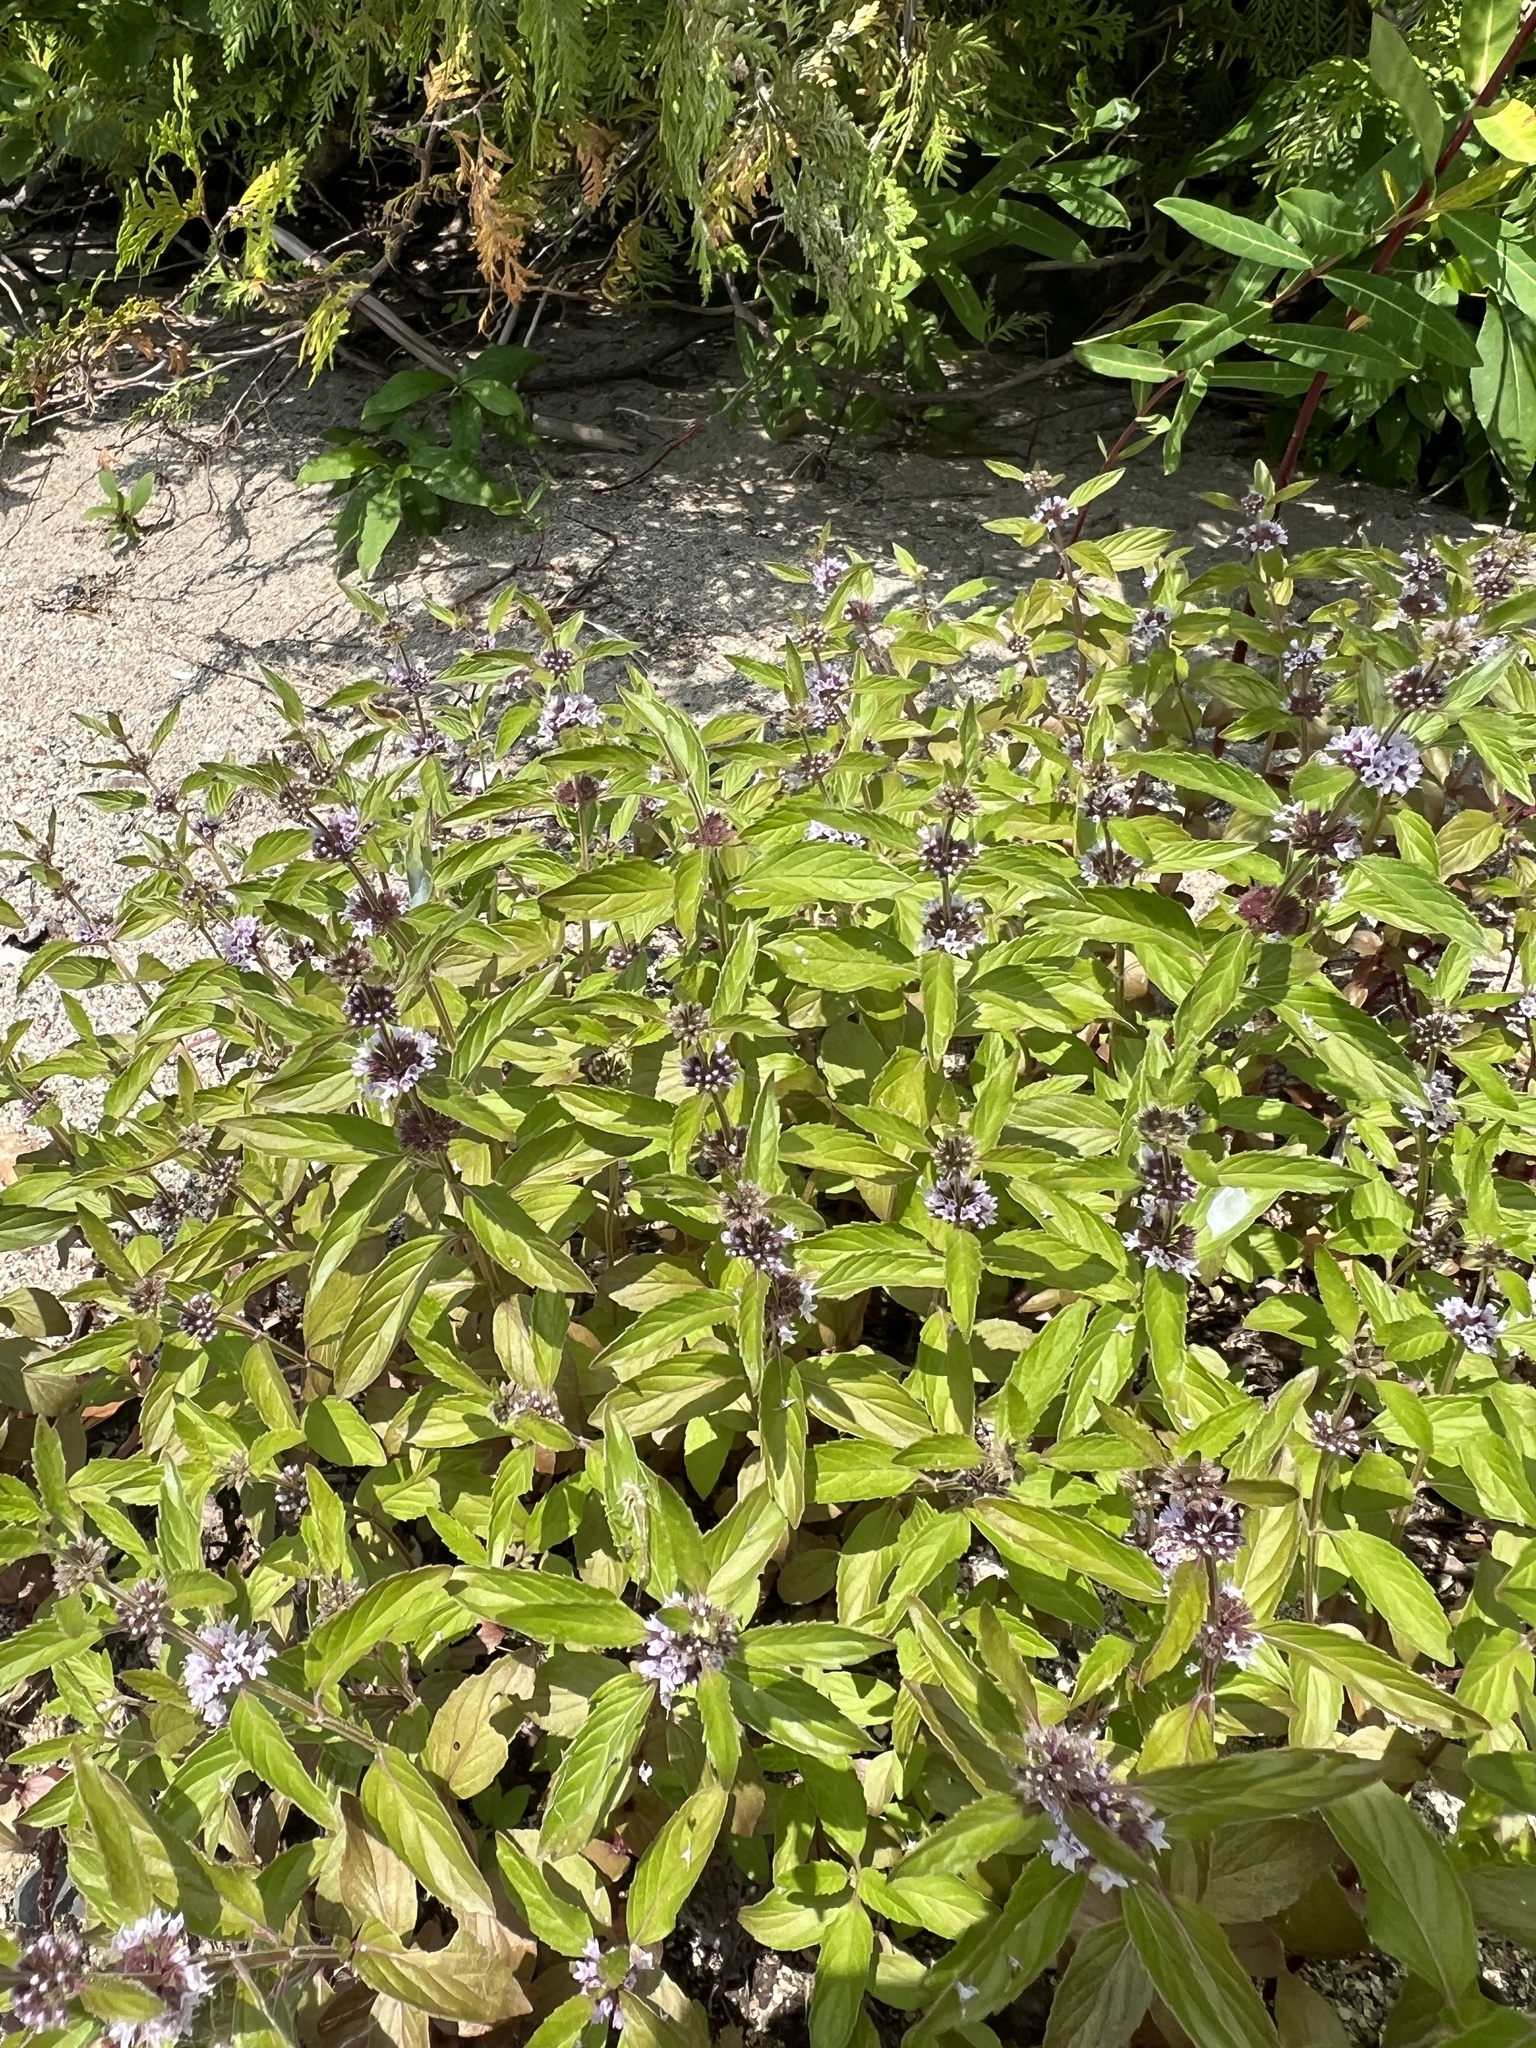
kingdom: Plantae
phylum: Tracheophyta
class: Magnoliopsida
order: Lamiales
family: Lamiaceae
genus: Mentha
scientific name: Mentha canadensis
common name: American corn mint
